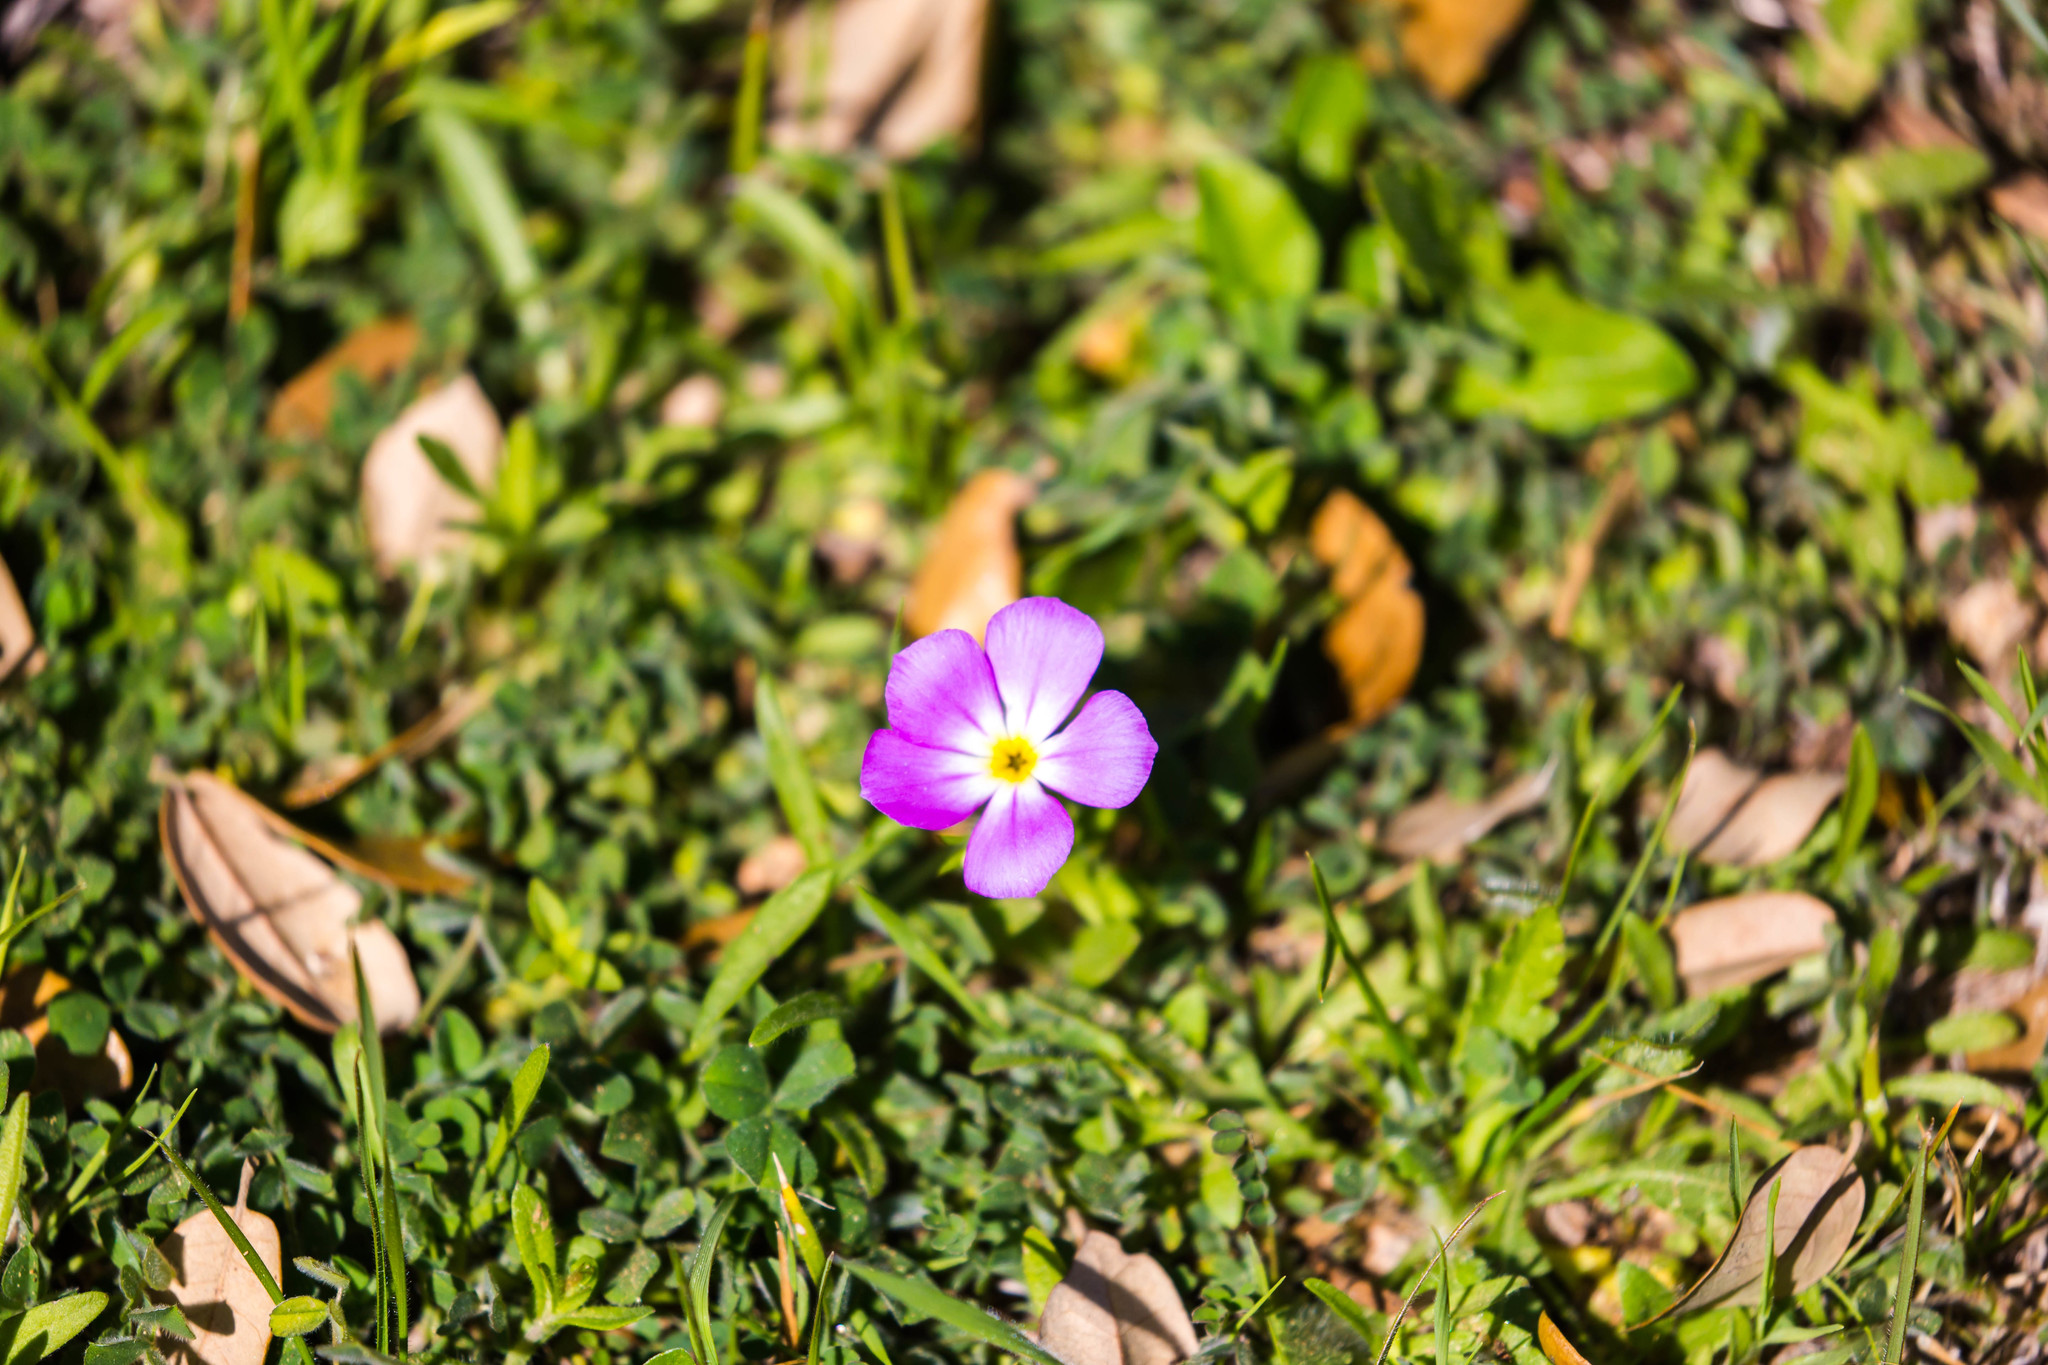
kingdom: Plantae
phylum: Tracheophyta
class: Magnoliopsida
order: Ericales
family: Polemoniaceae
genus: Phlox
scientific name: Phlox roemeriana
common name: Roemer's phlox
